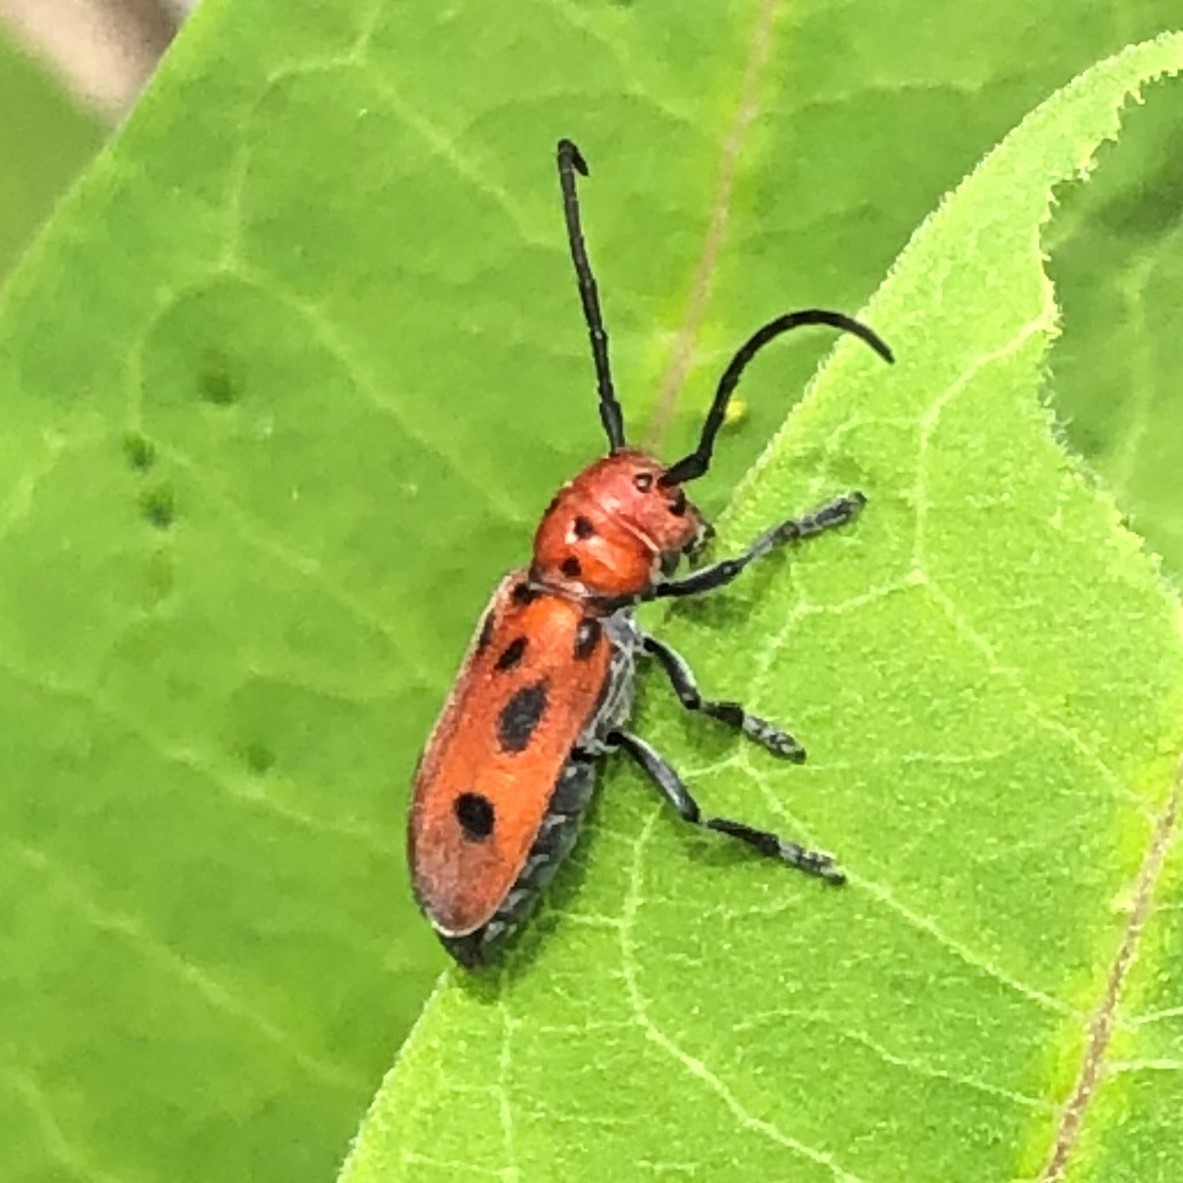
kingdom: Animalia
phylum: Arthropoda
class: Insecta
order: Coleoptera
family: Cerambycidae
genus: Tetraopes
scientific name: Tetraopes tetrophthalmus
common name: Red milkweed beetle
